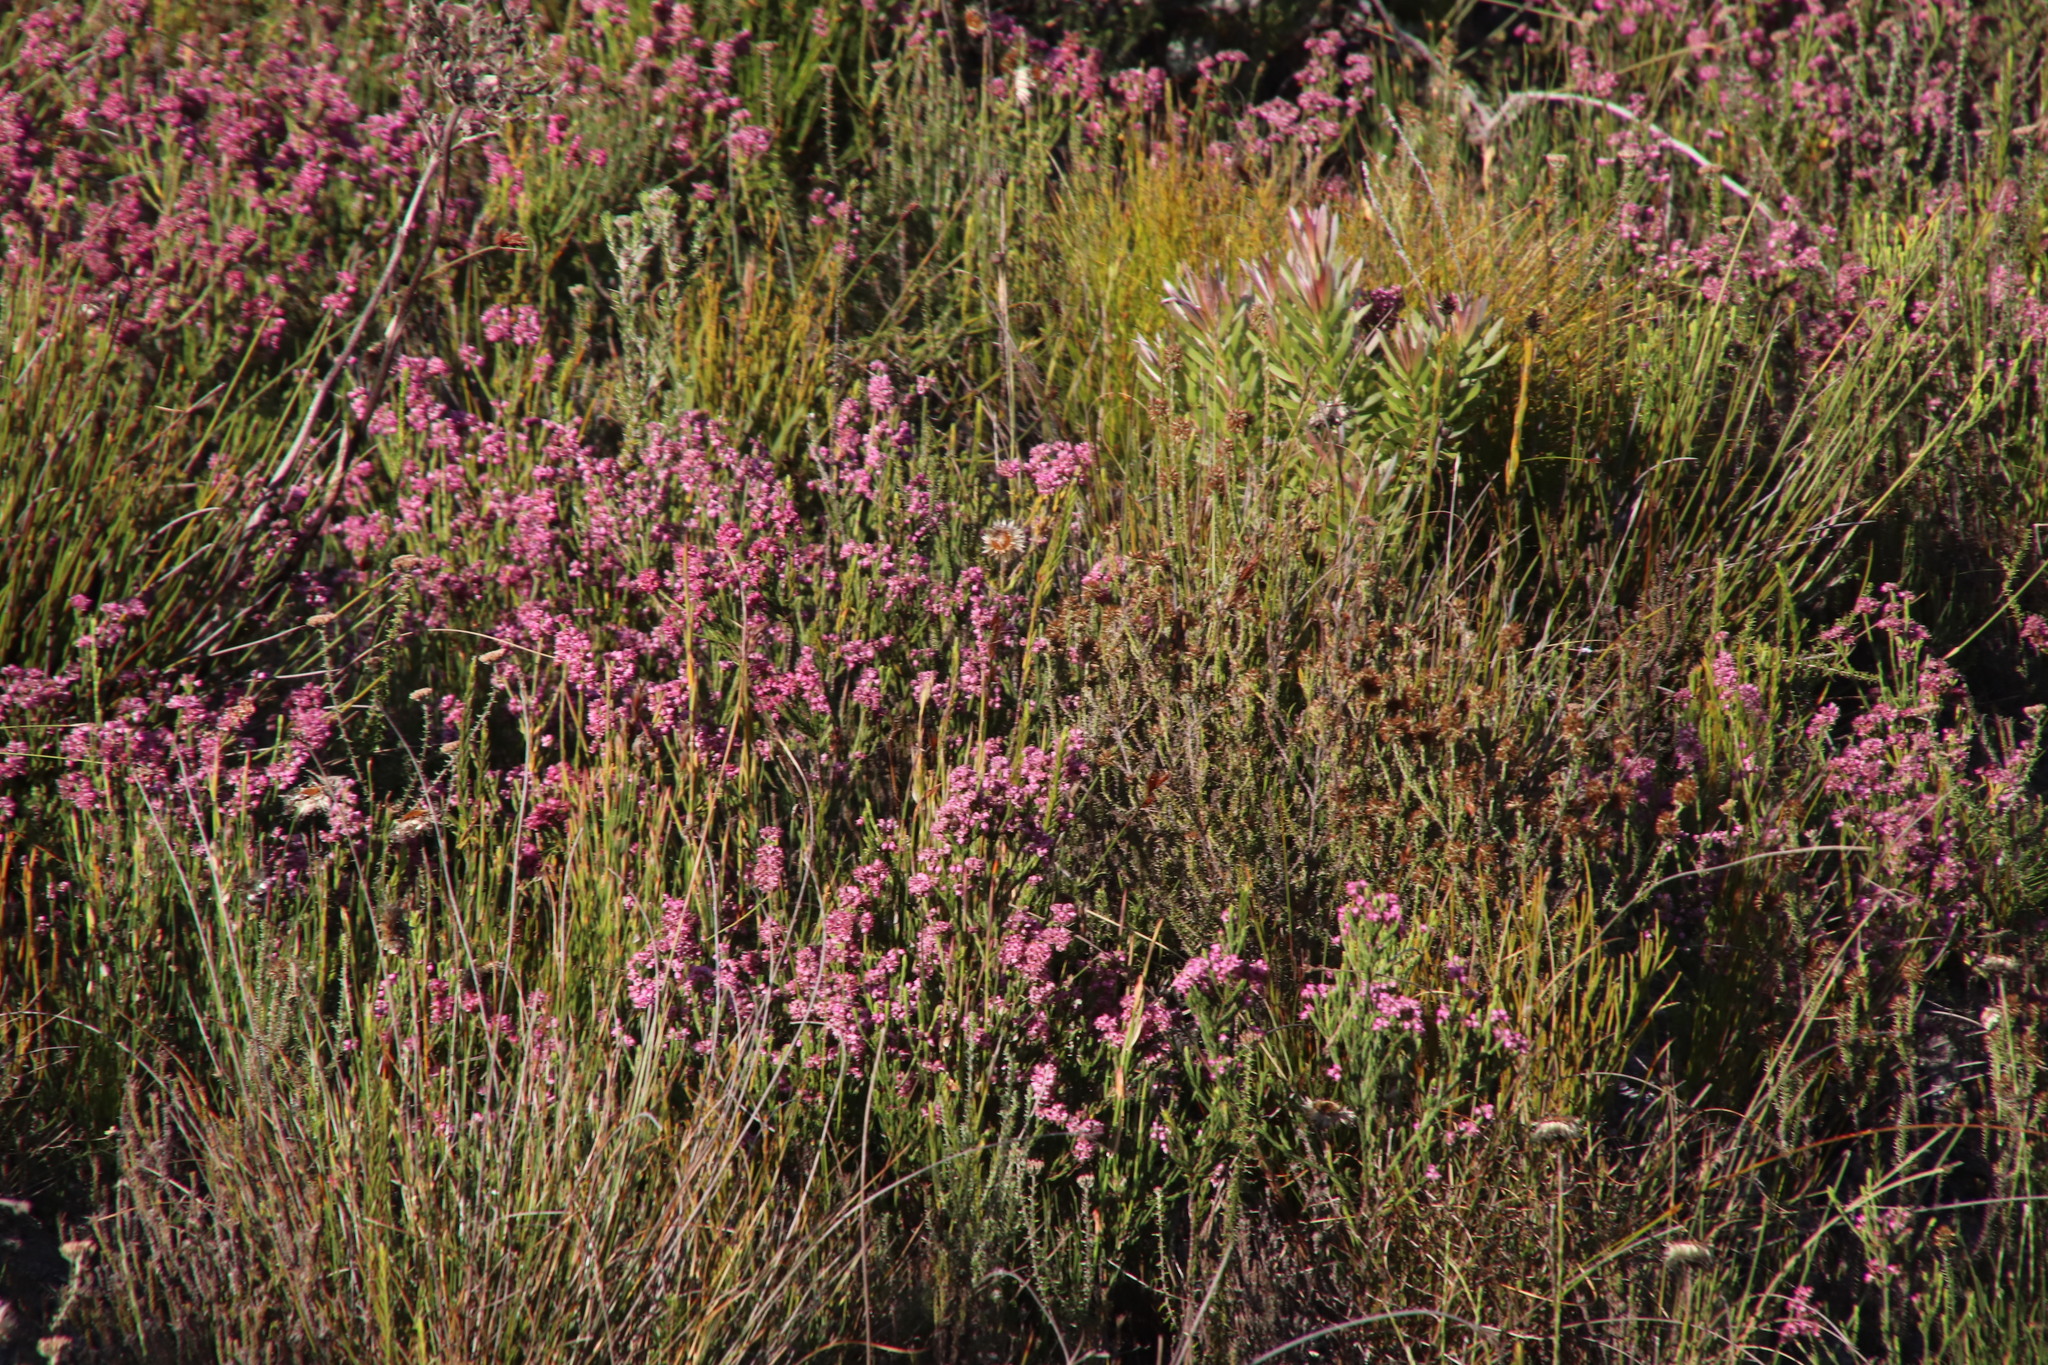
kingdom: Plantae
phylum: Tracheophyta
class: Magnoliopsida
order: Ericales
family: Ericaceae
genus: Erica
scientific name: Erica nudiflora
